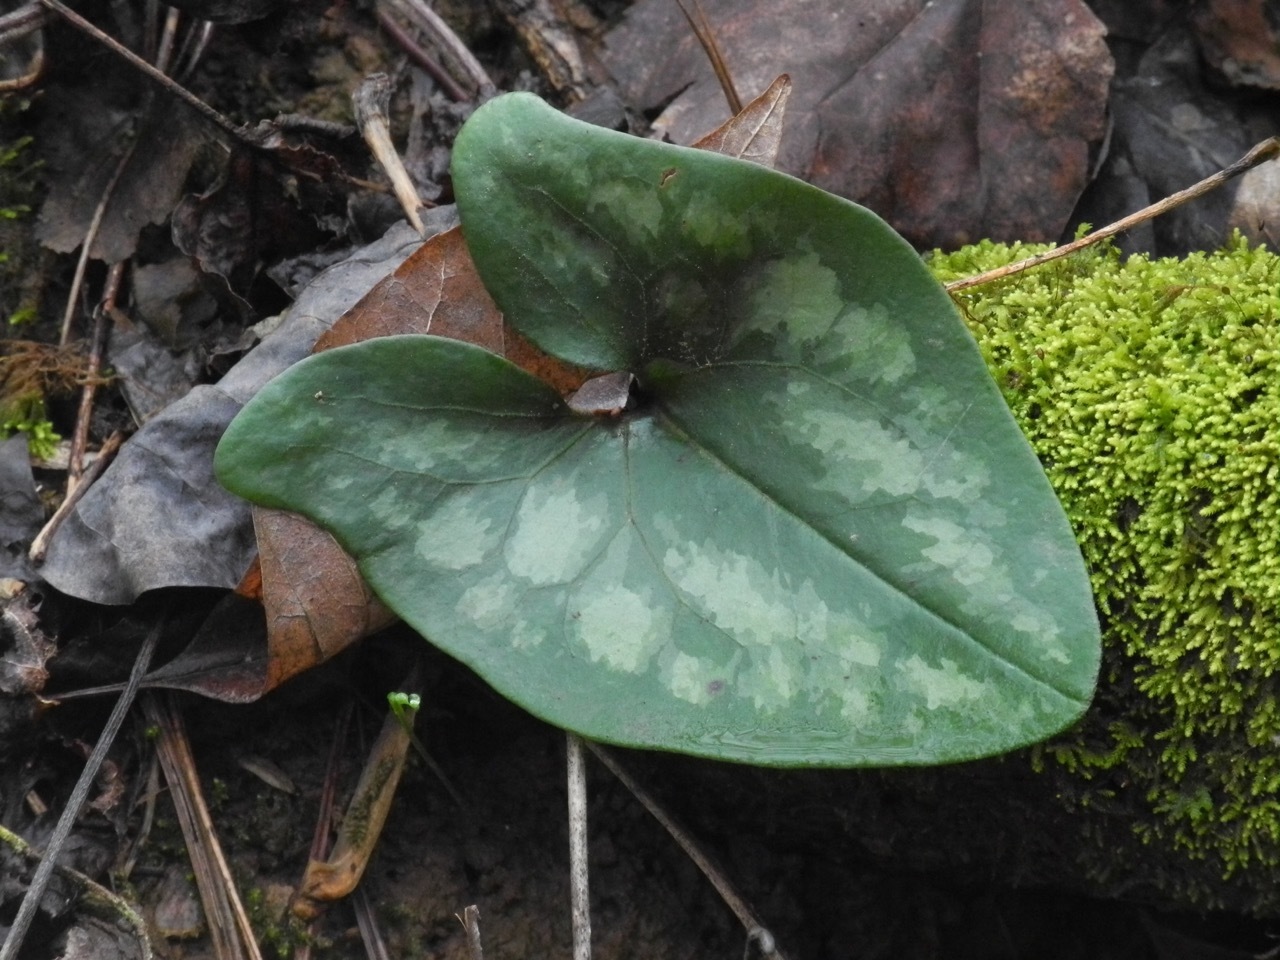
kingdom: Plantae
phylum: Tracheophyta
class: Magnoliopsida
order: Piperales
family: Aristolochiaceae
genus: Hexastylis
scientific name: Hexastylis arifolia
